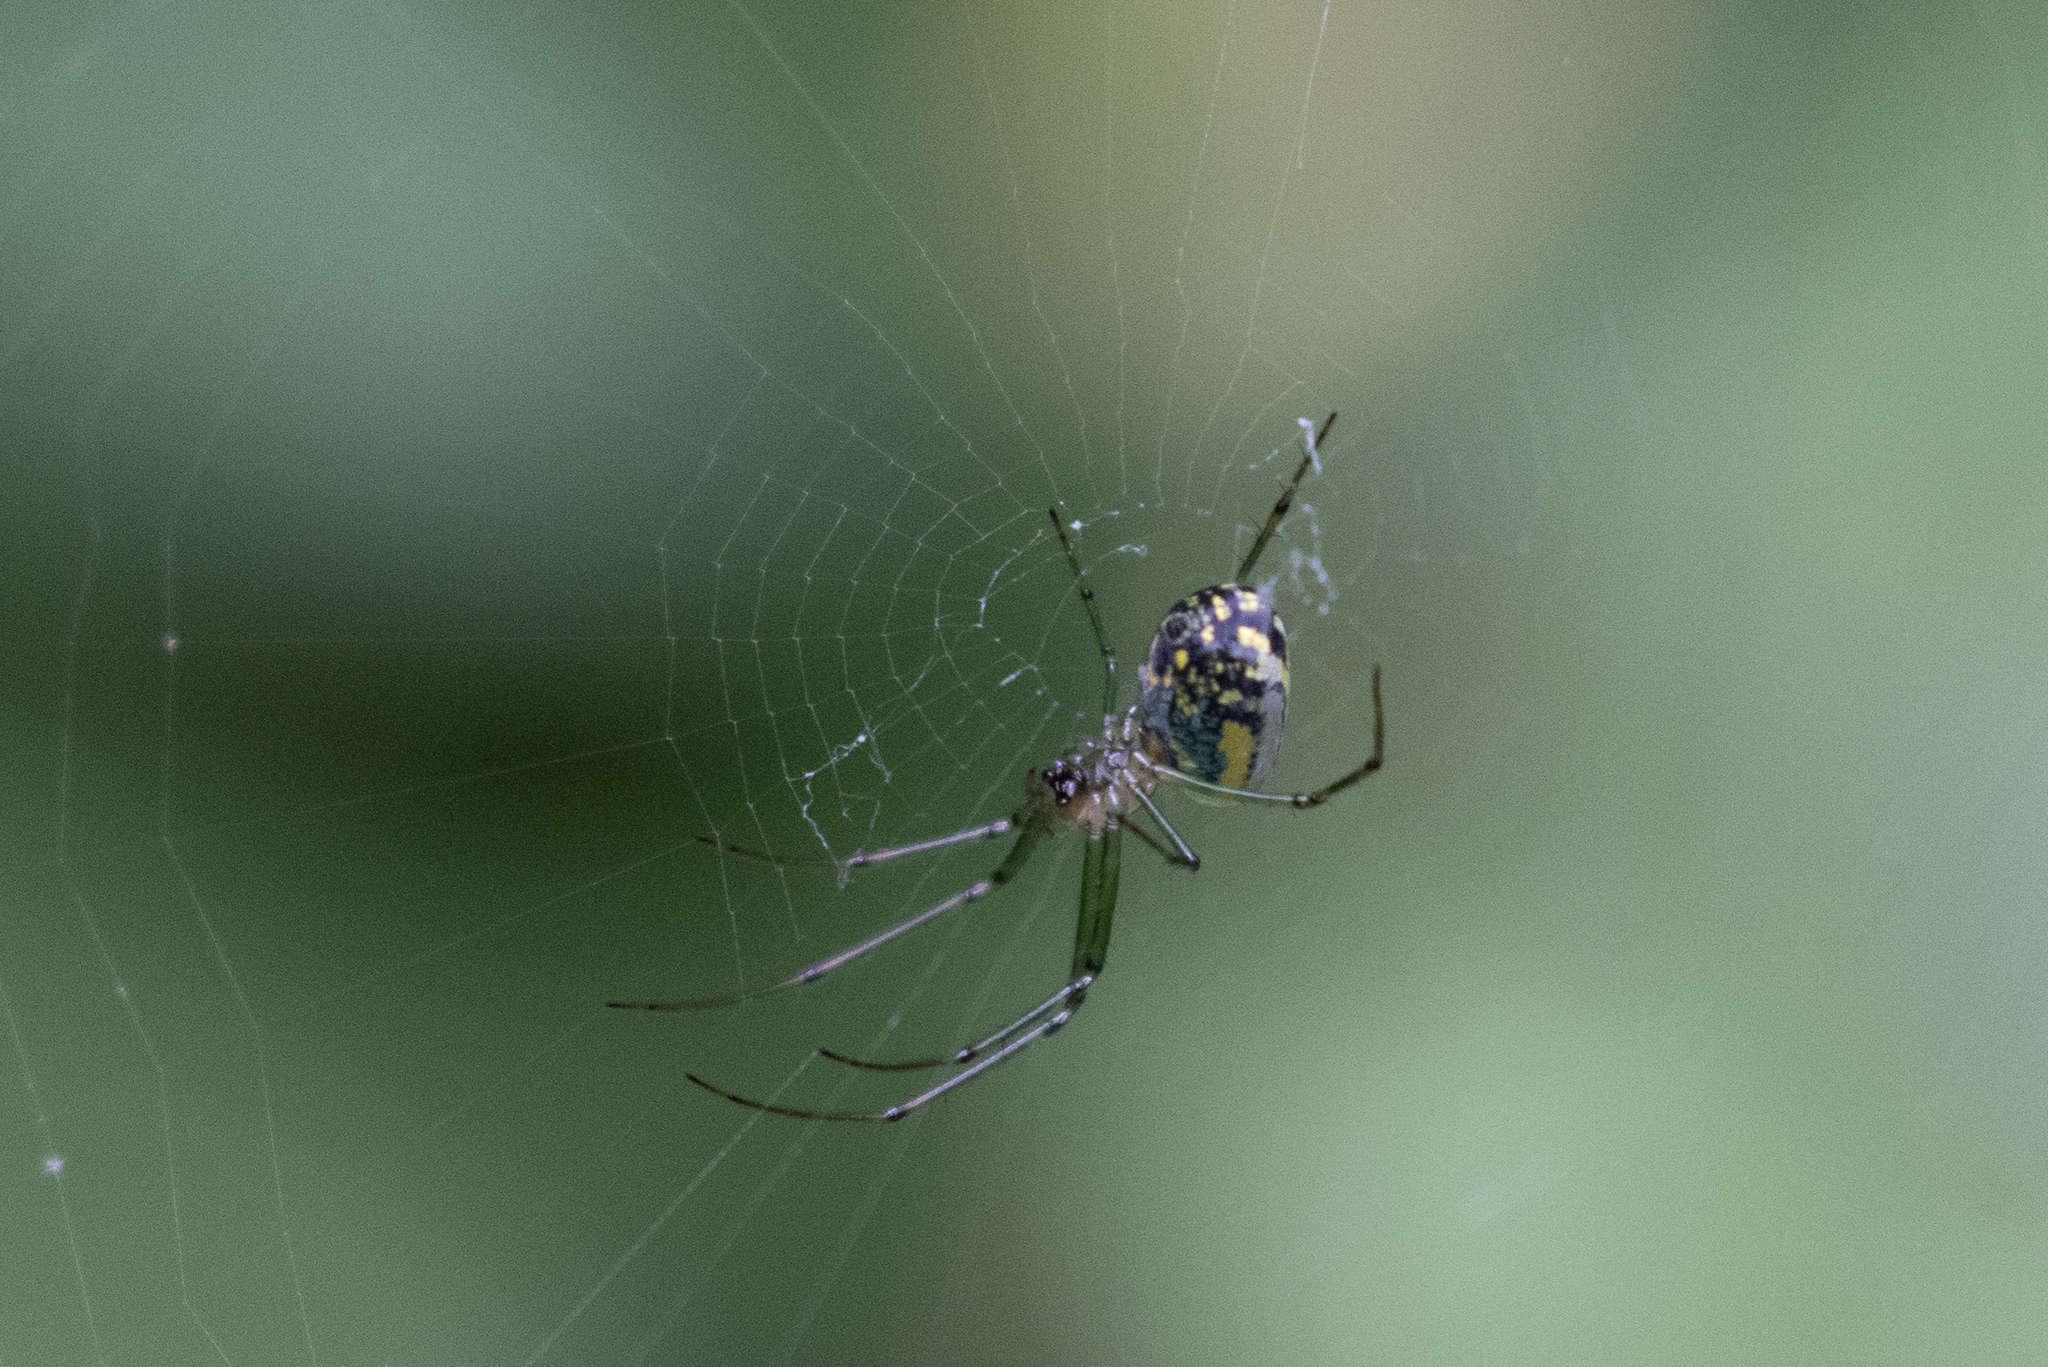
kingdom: Animalia
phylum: Arthropoda
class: Arachnida
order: Araneae
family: Tetragnathidae
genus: Leucauge
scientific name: Leucauge venusta
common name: Longjawed orb weavers
